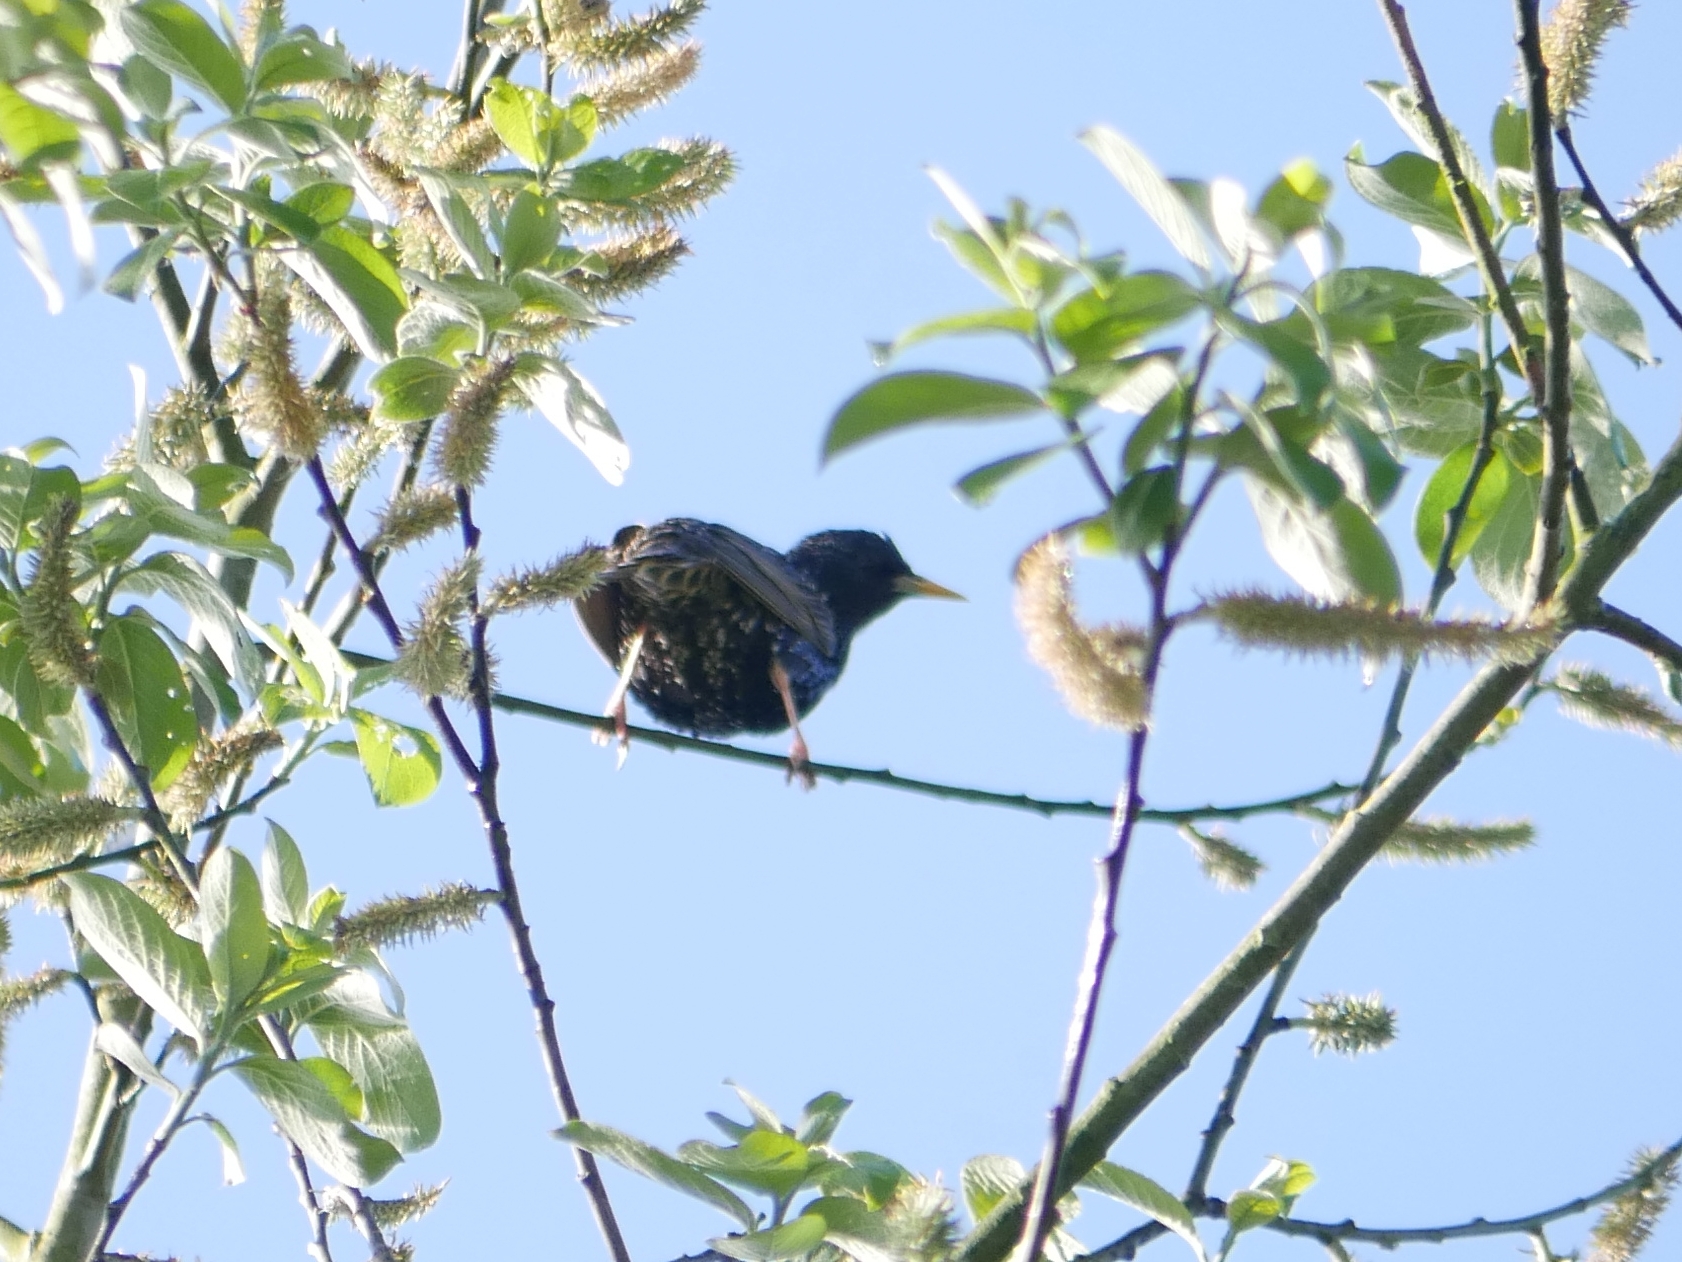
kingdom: Animalia
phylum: Chordata
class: Aves
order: Passeriformes
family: Sturnidae
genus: Sturnus
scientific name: Sturnus vulgaris
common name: Common starling
